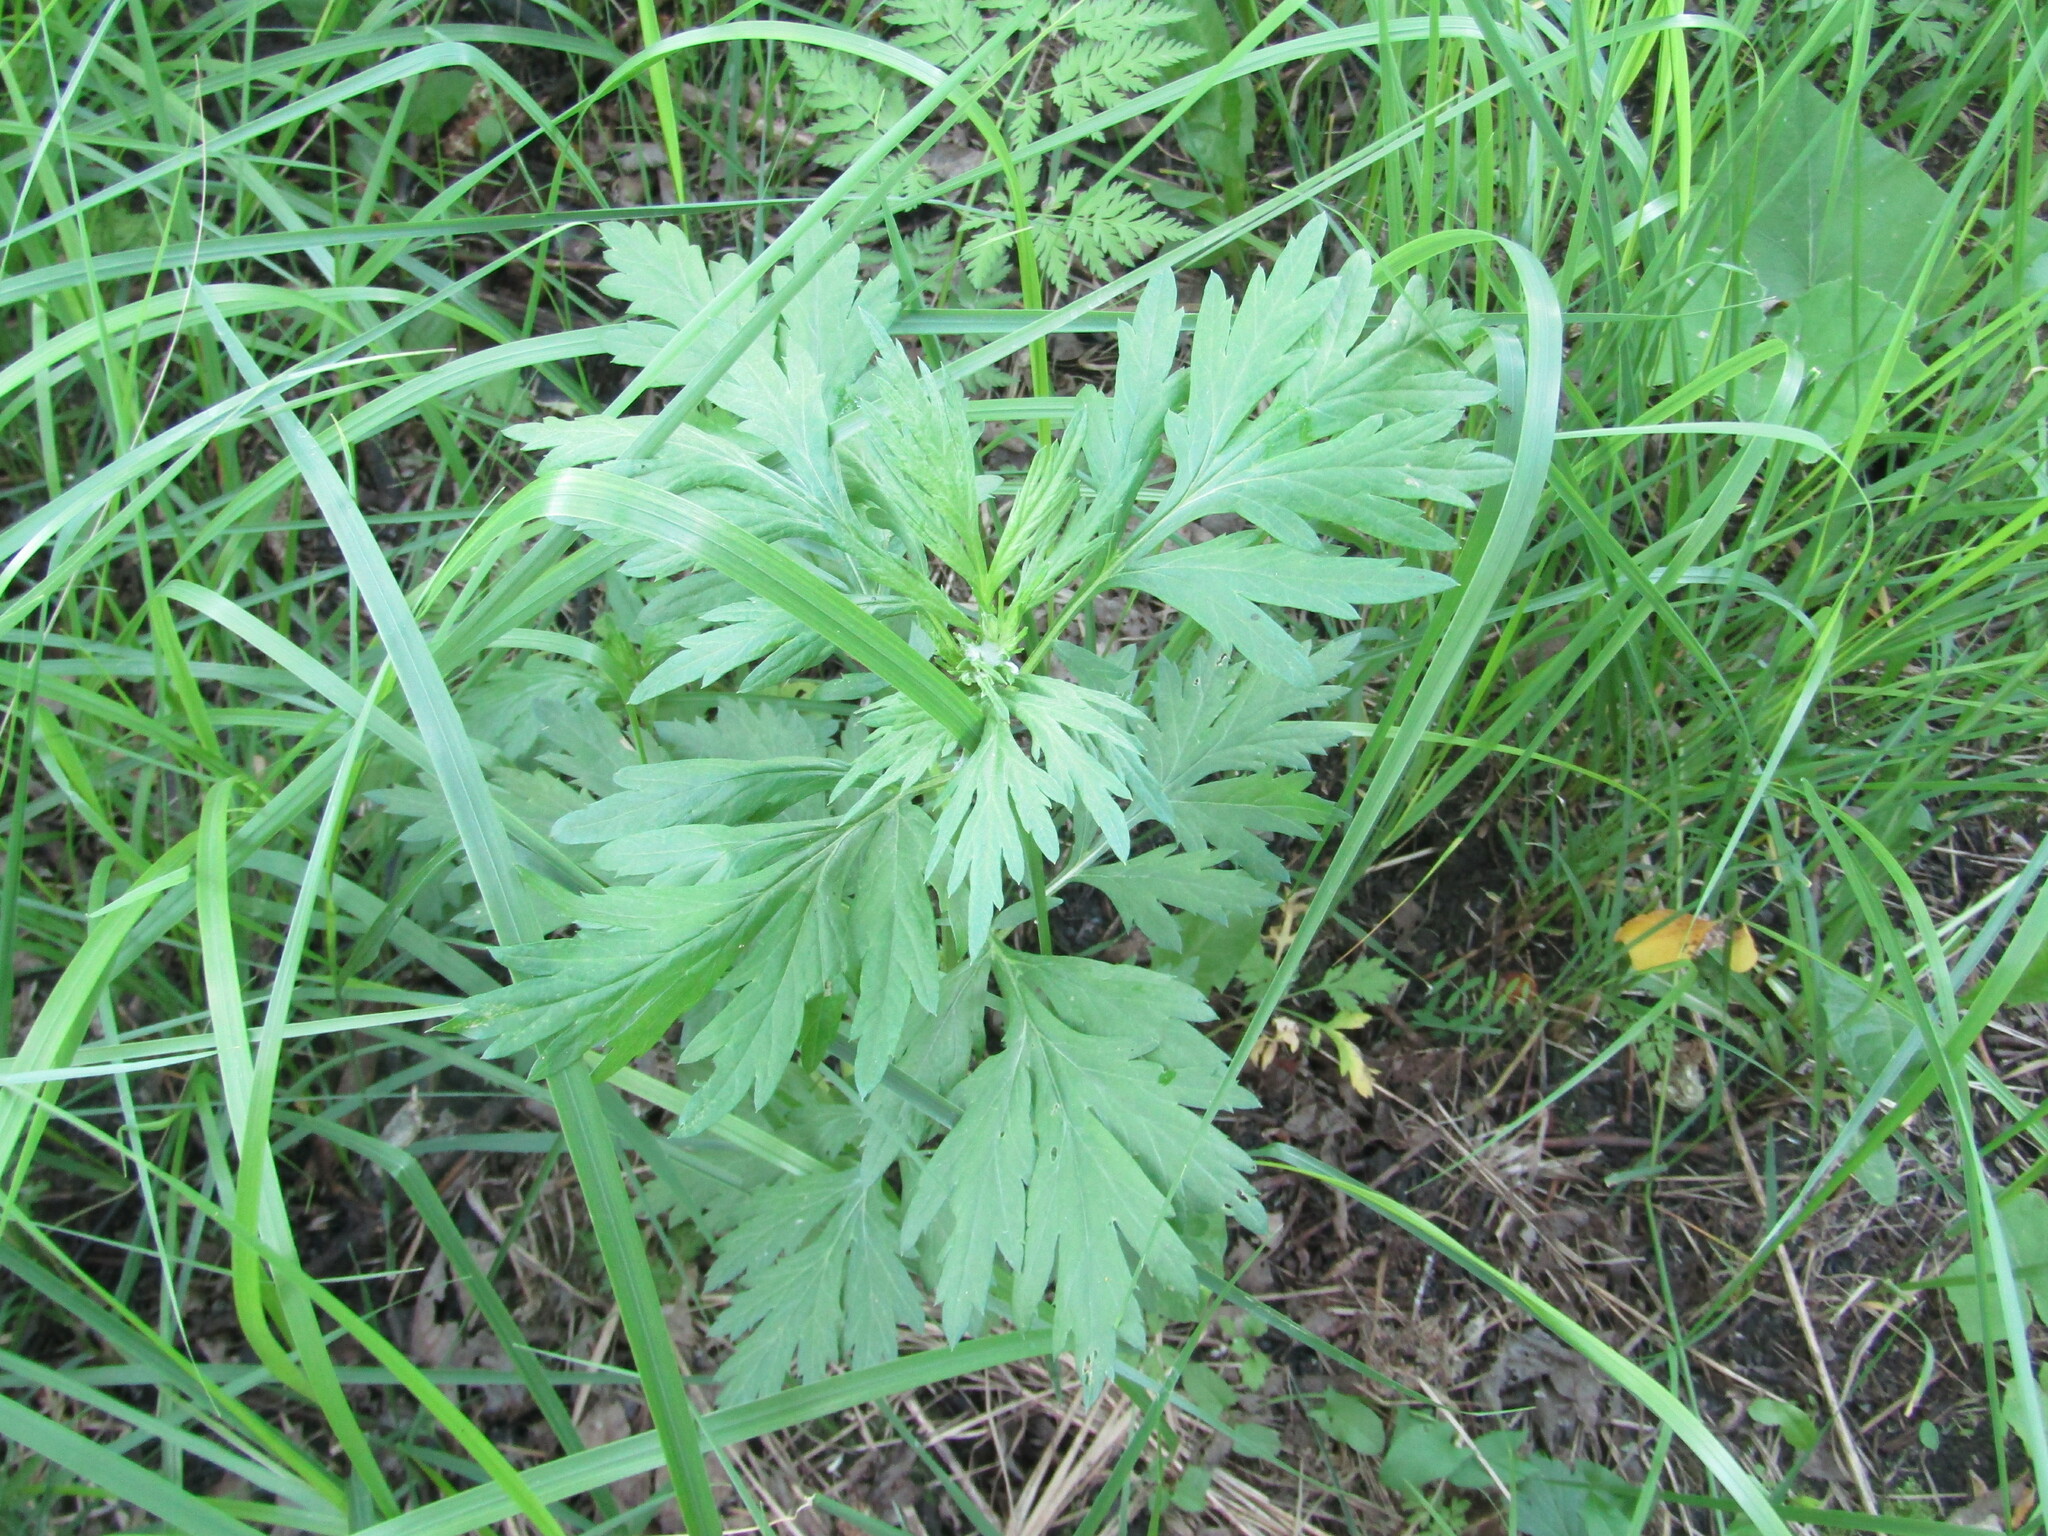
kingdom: Plantae
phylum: Tracheophyta
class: Magnoliopsida
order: Asterales
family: Asteraceae
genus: Artemisia
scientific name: Artemisia vulgaris
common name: Mugwort
